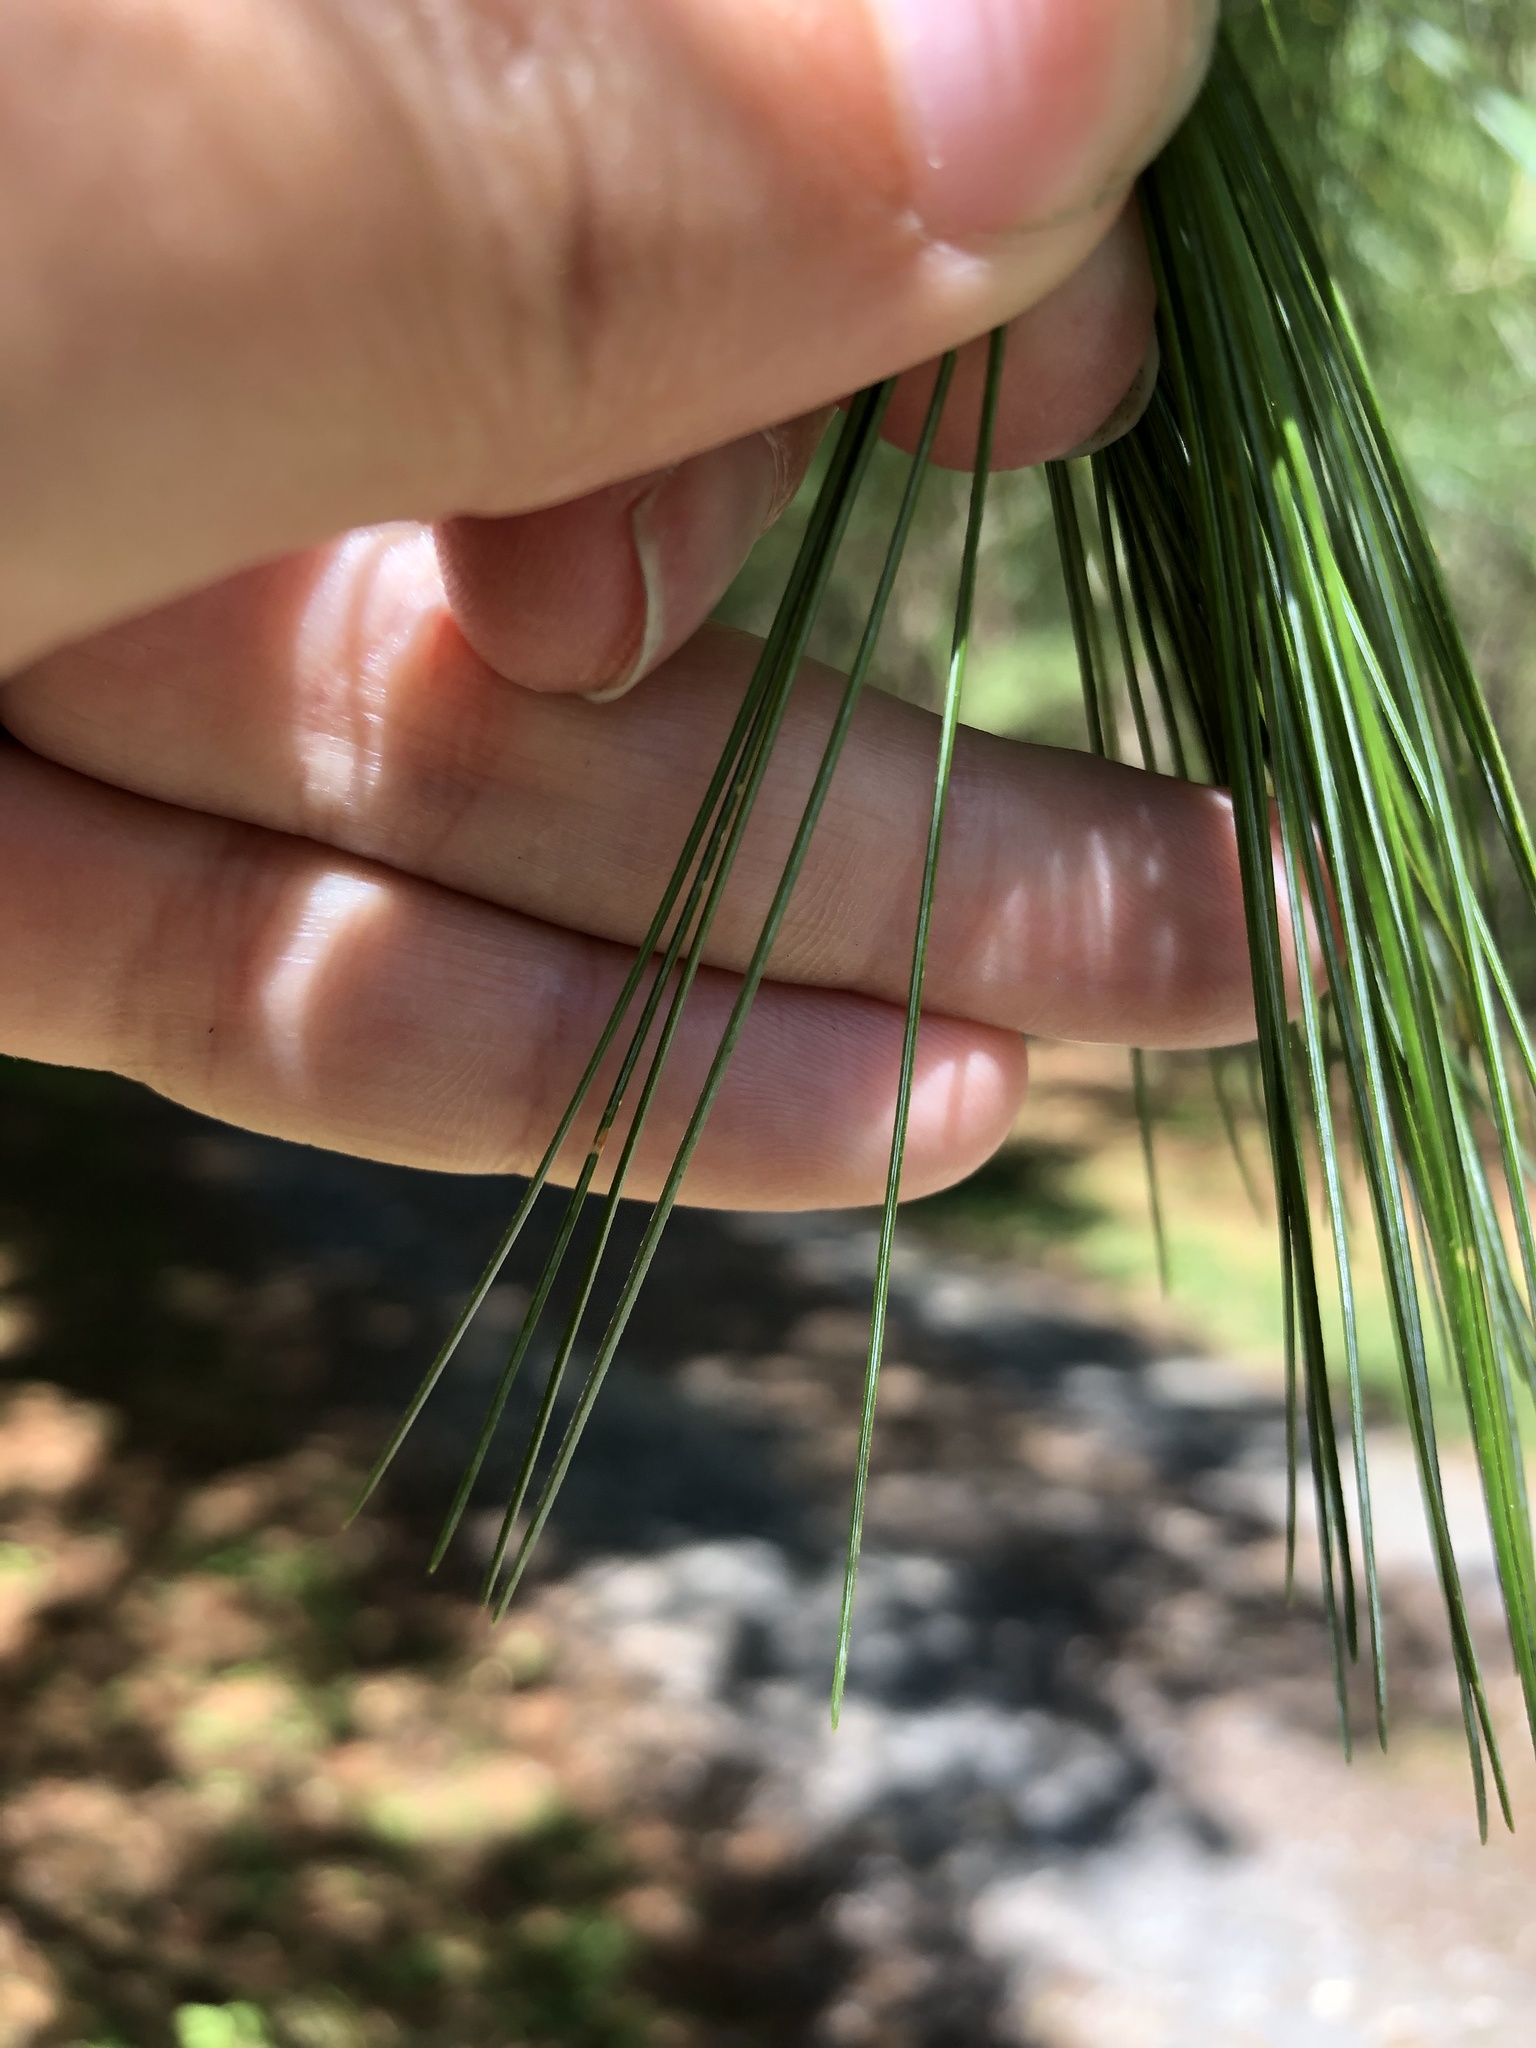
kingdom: Plantae
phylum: Tracheophyta
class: Pinopsida
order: Pinales
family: Pinaceae
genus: Pinus
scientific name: Pinus strobus
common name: Weymouth pine
